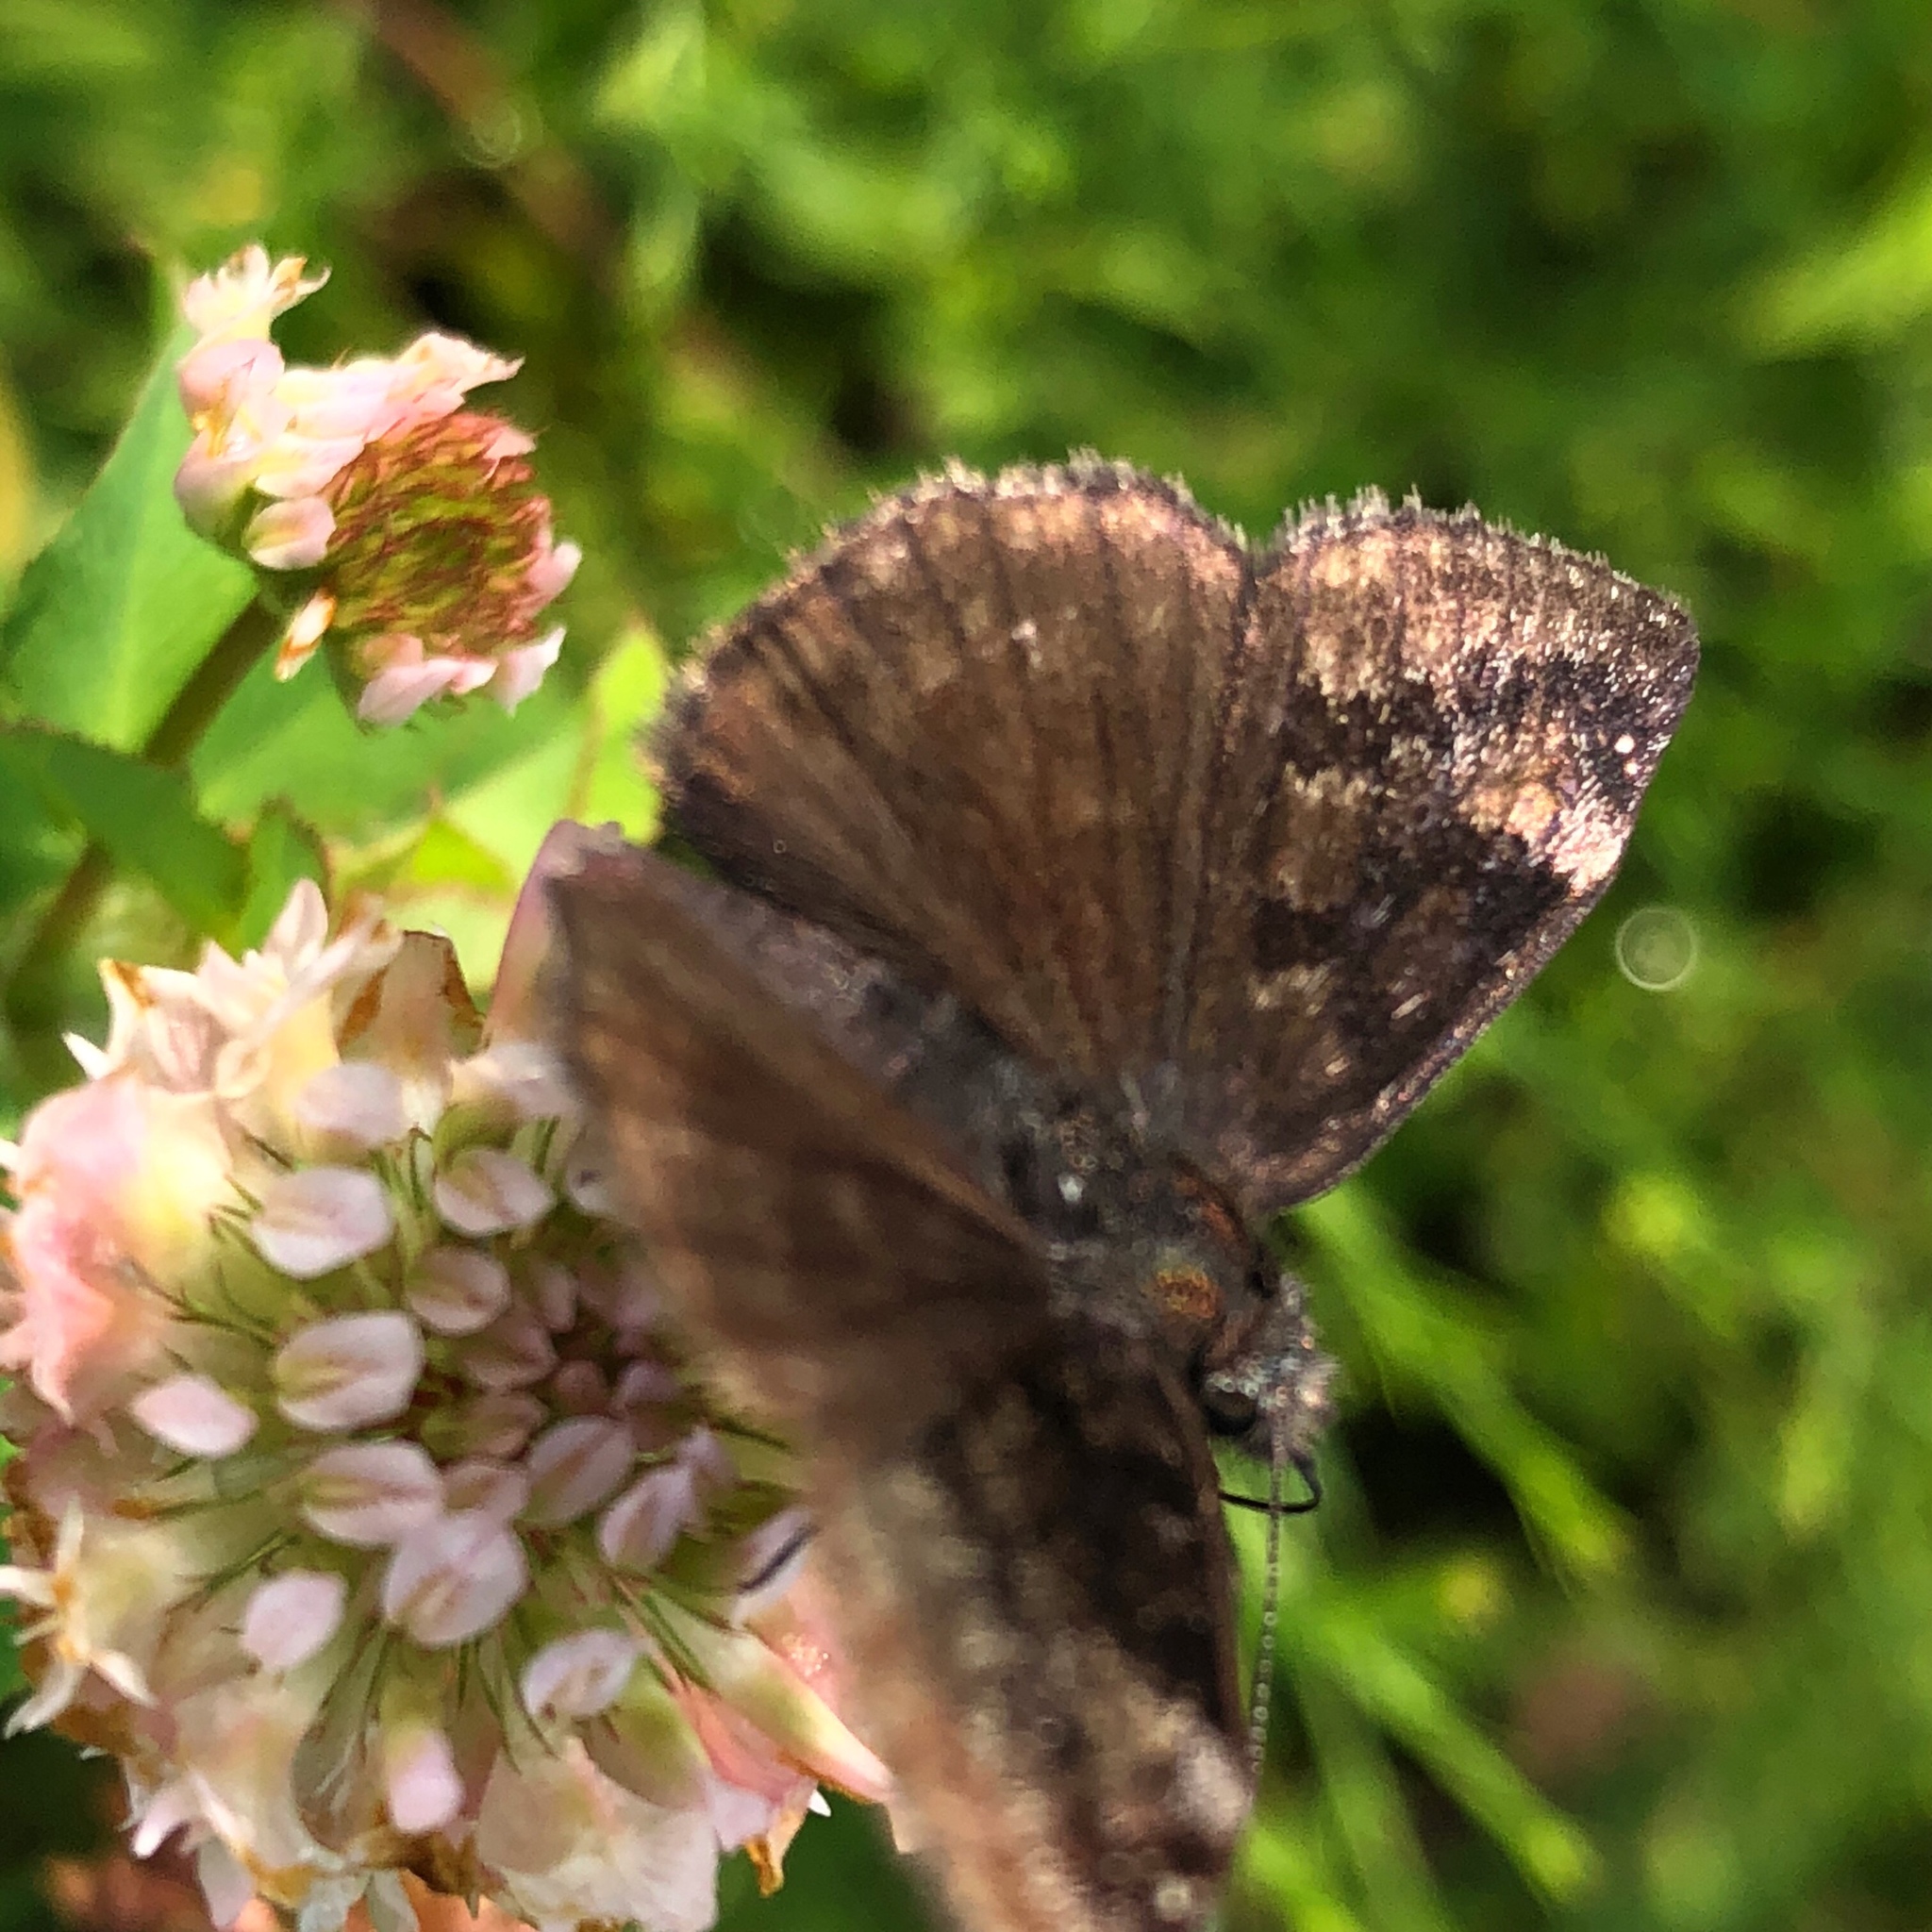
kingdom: Animalia
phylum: Arthropoda
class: Insecta
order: Lepidoptera
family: Hesperiidae
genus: Erynnis
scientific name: Erynnis baptisiae
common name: Wild indigo duskywing
